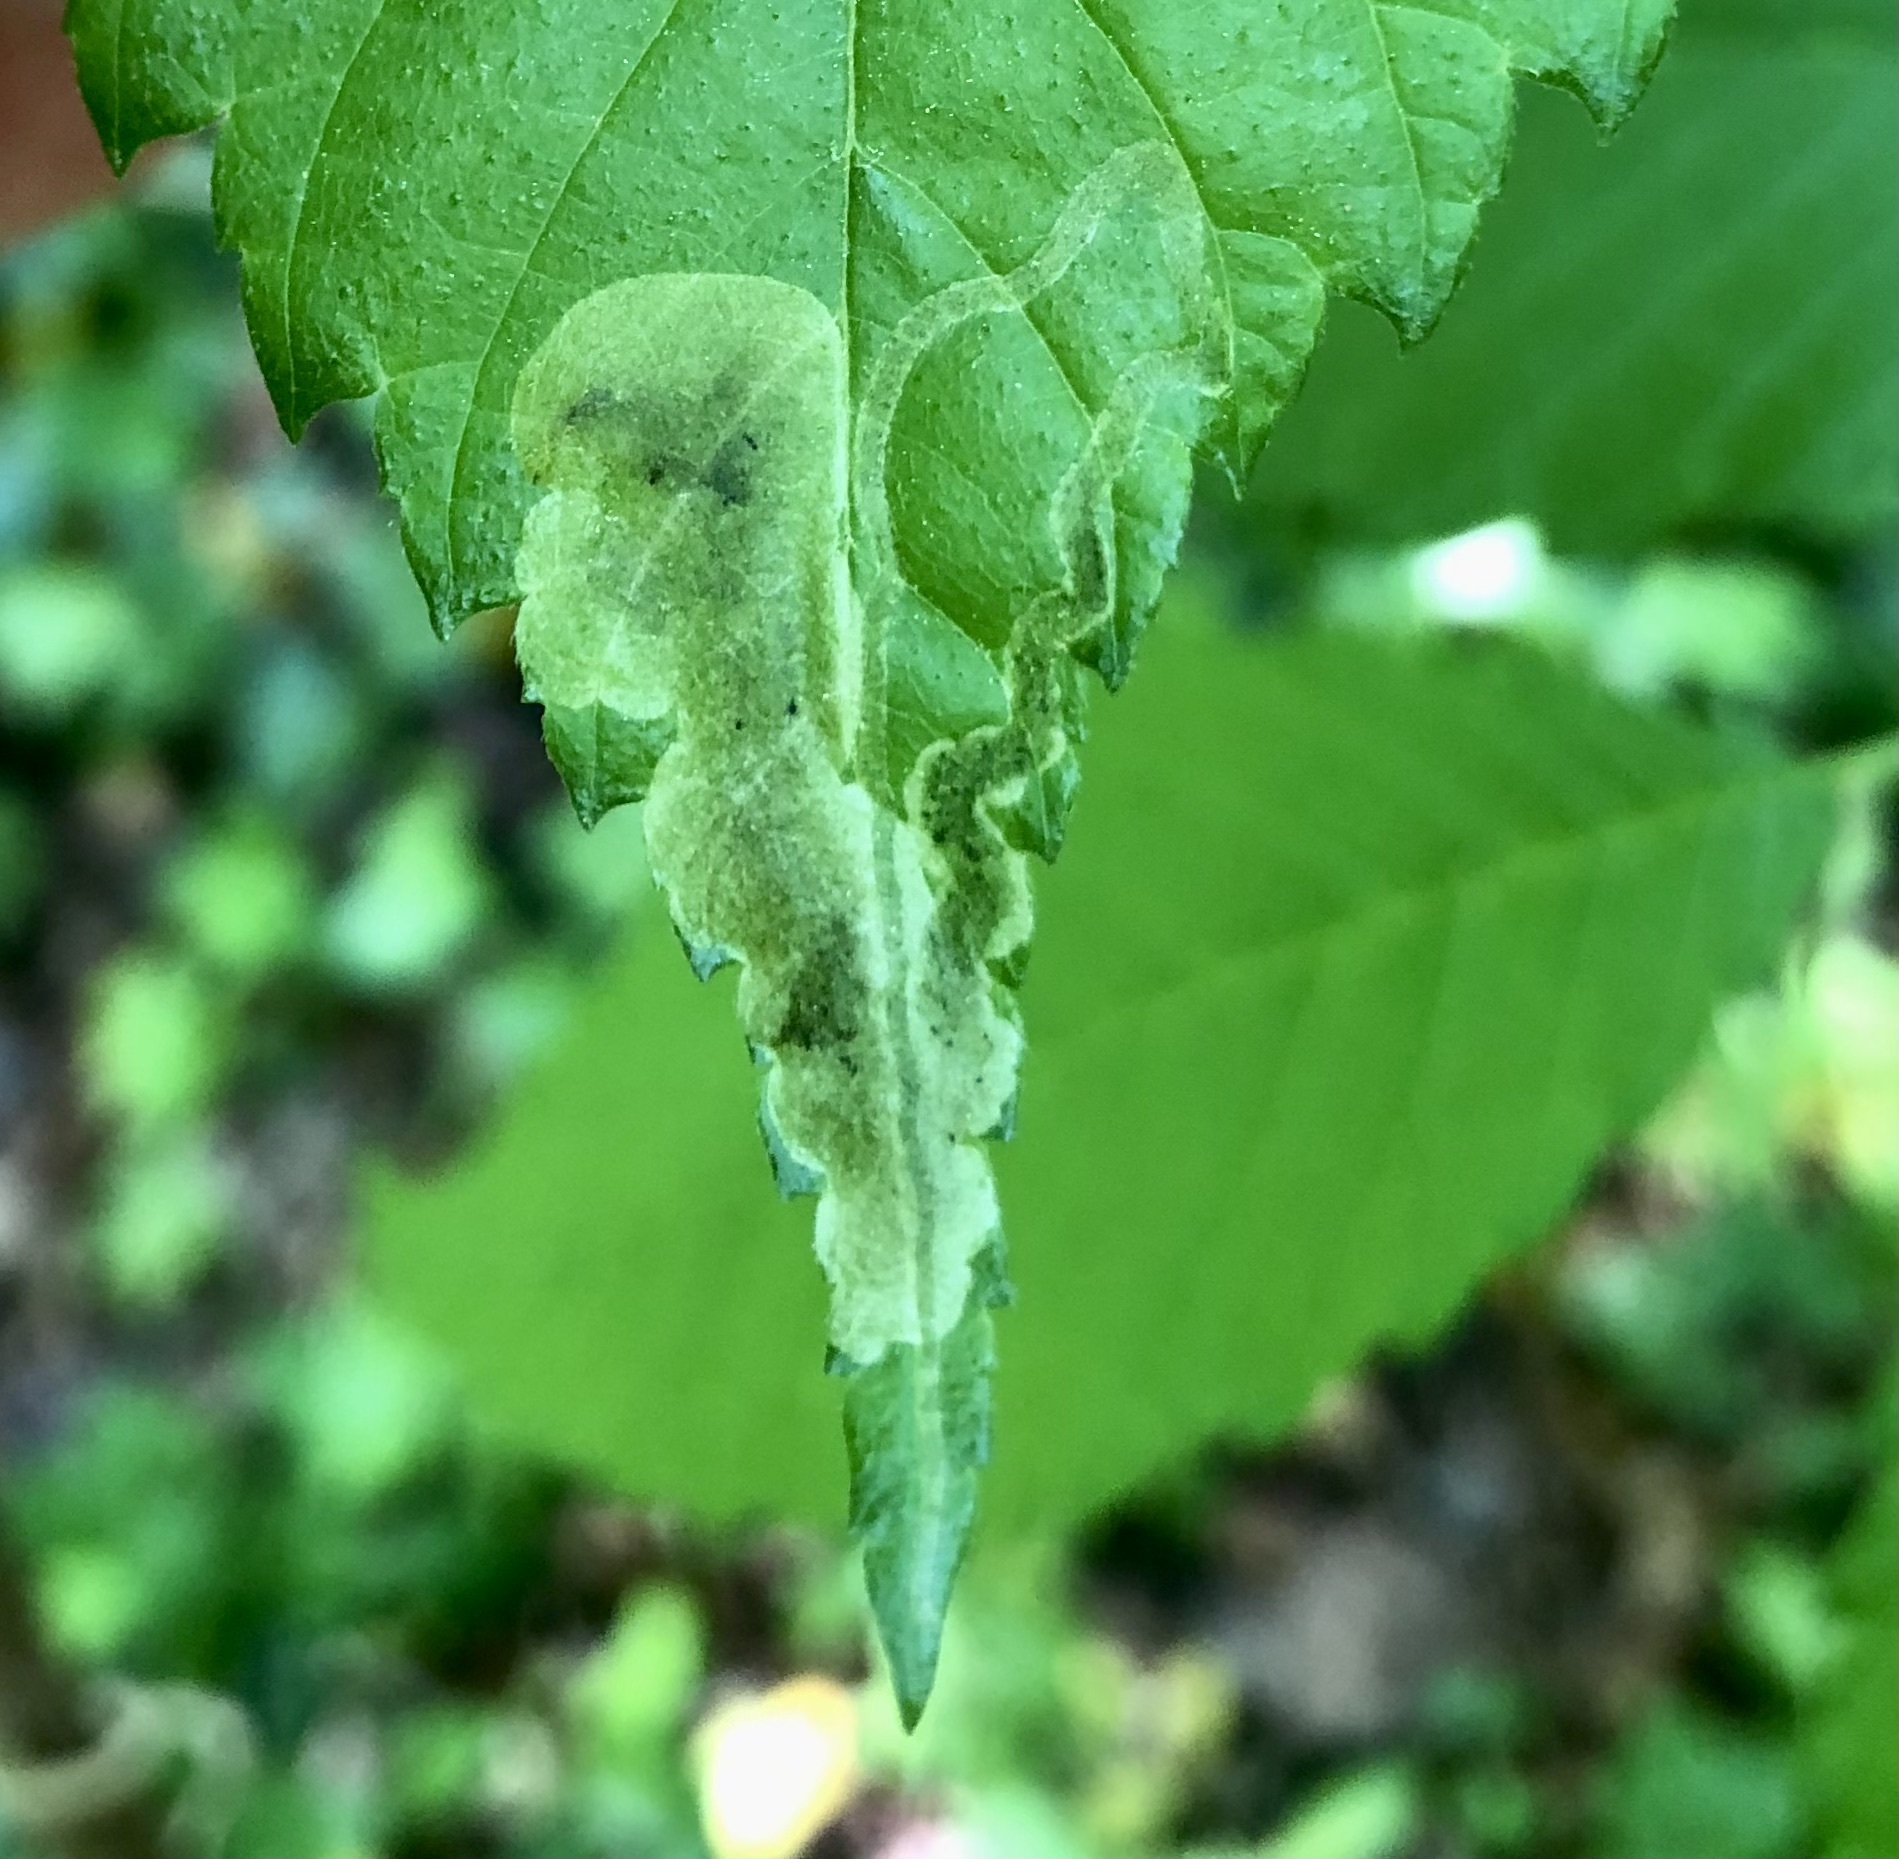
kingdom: Animalia
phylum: Arthropoda
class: Insecta
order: Diptera
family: Agromyzidae
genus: Agromyza
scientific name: Agromyza aristata
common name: Elm agromyzid leafminer
